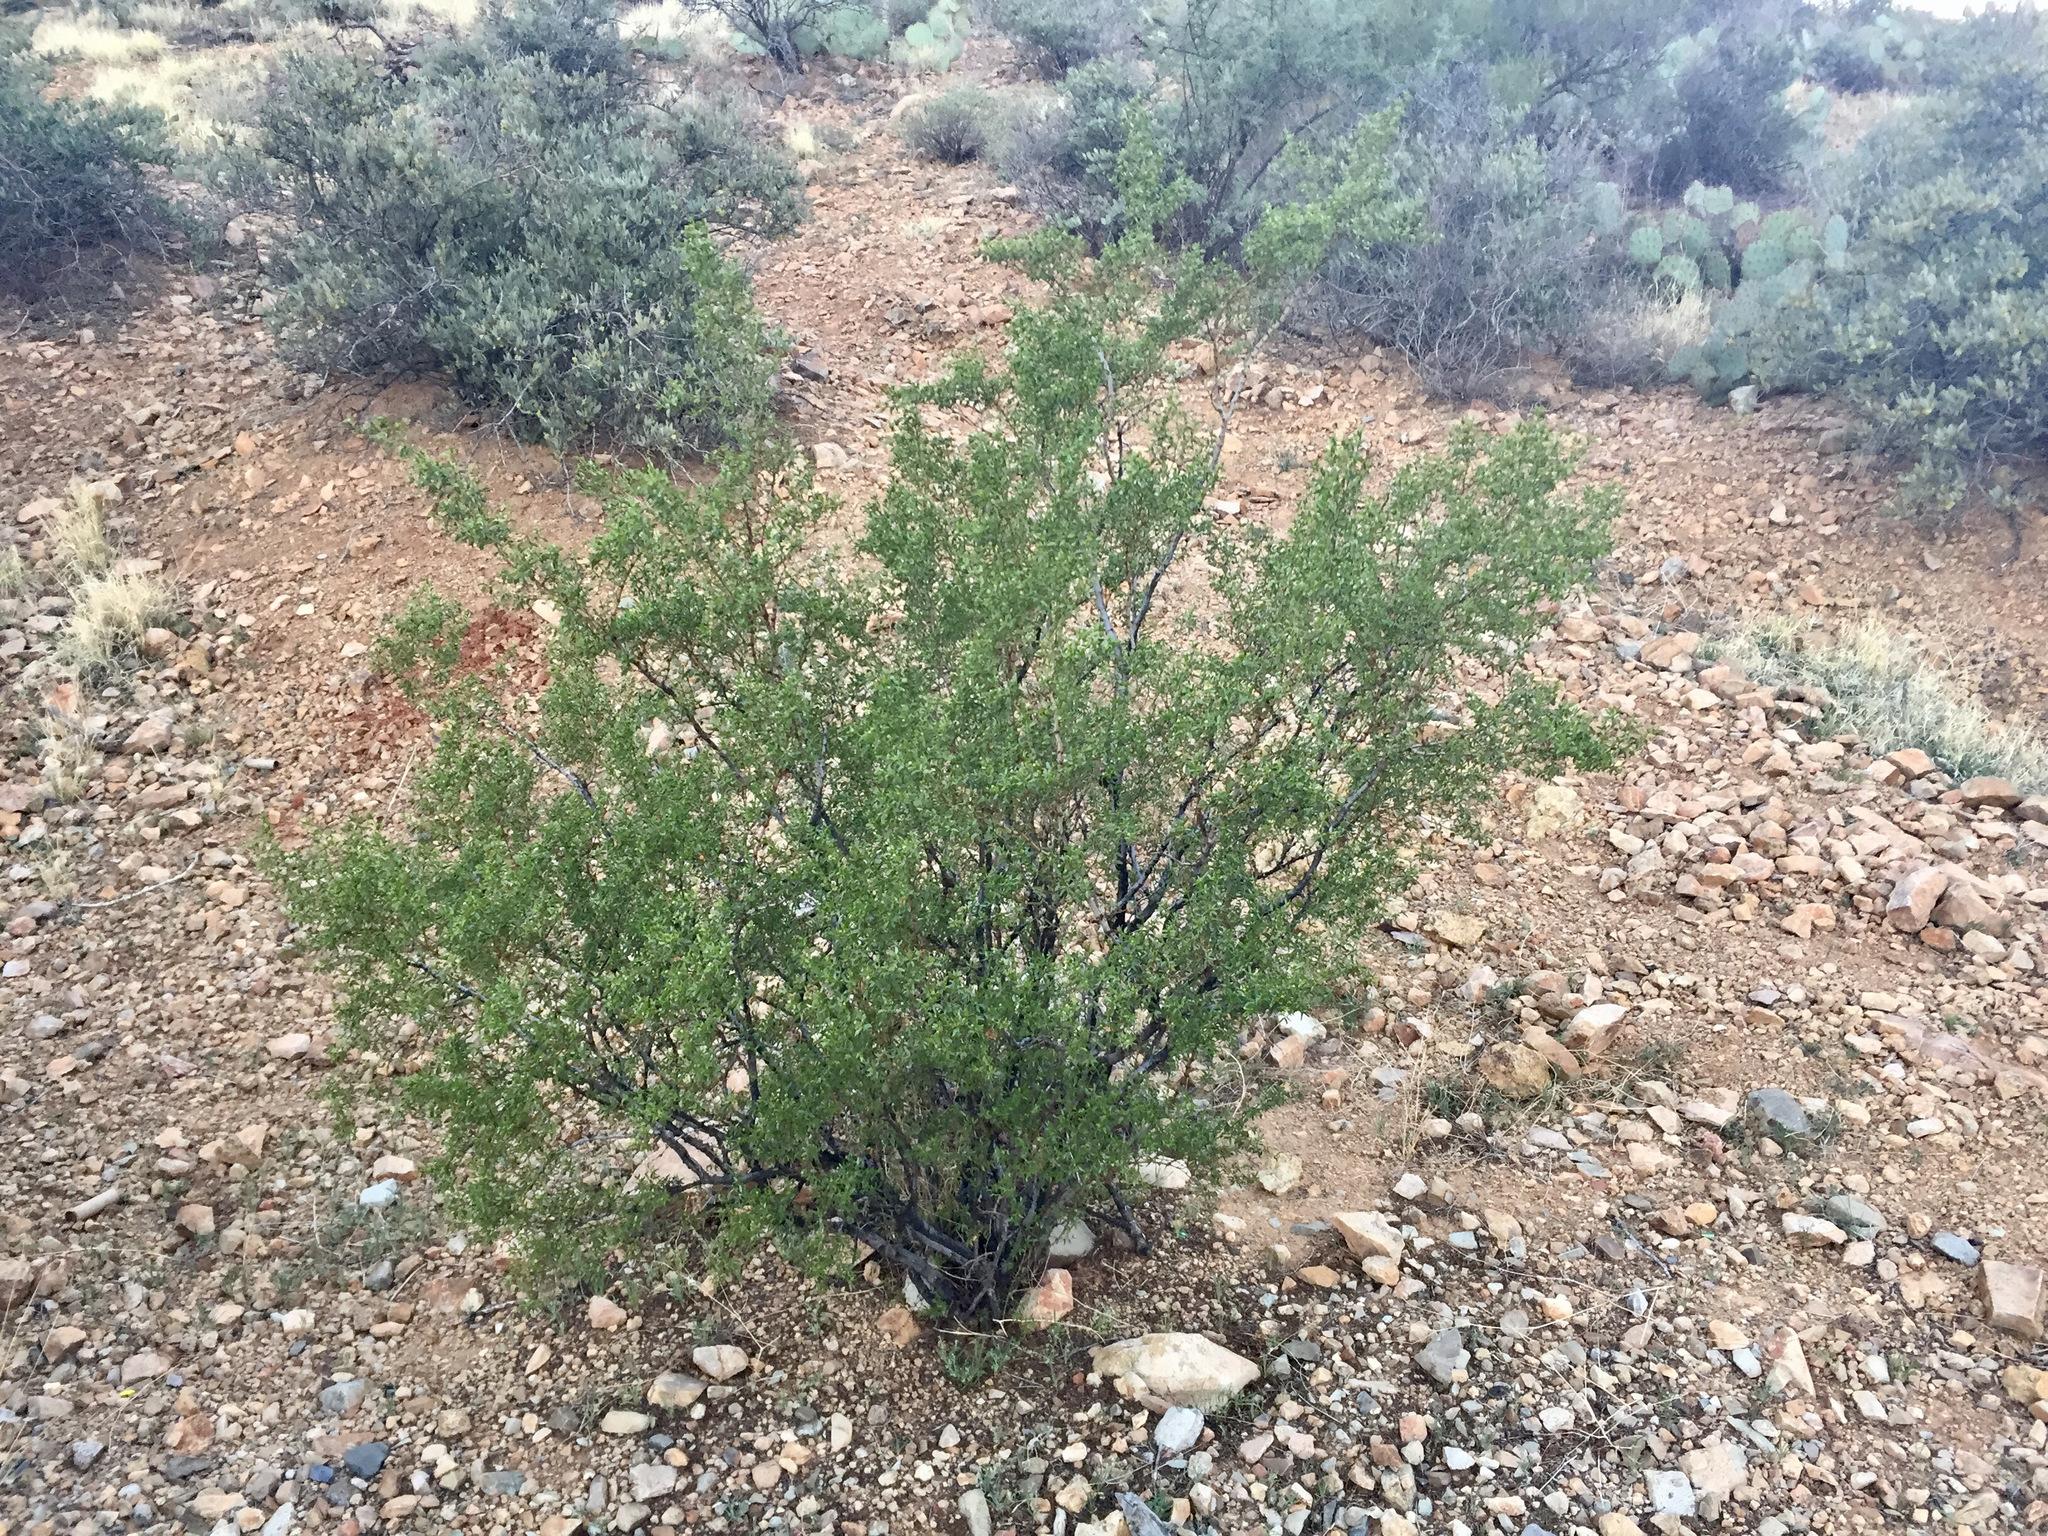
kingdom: Plantae
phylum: Tracheophyta
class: Magnoliopsida
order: Zygophyllales
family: Zygophyllaceae
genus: Larrea
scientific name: Larrea tridentata
